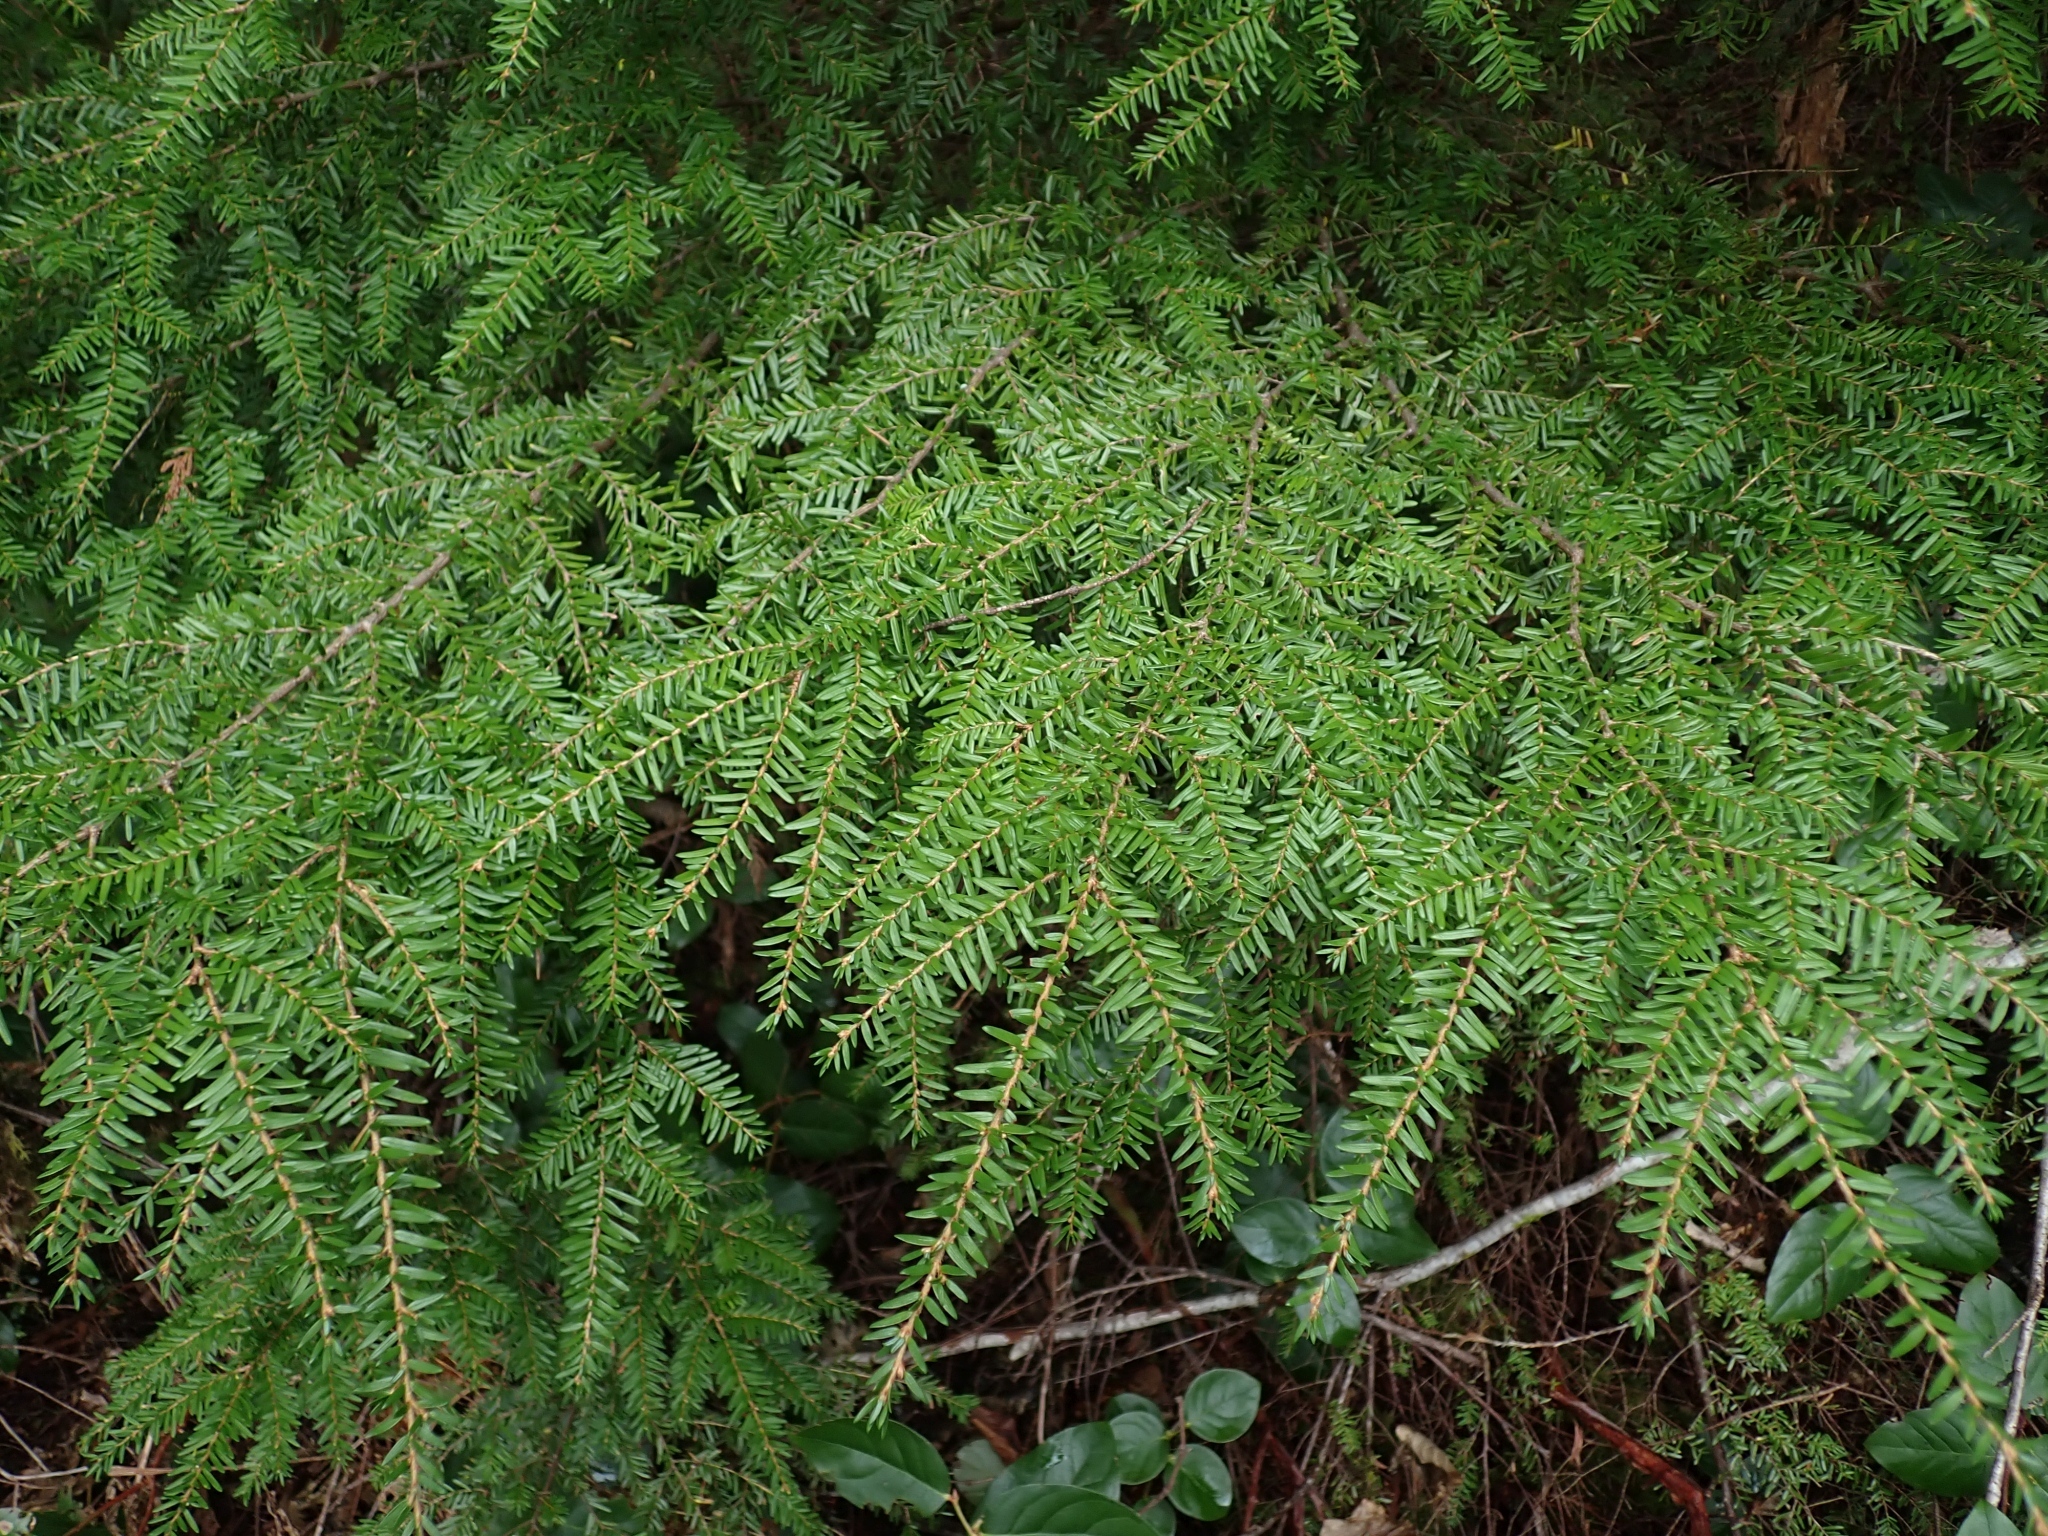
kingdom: Plantae
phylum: Tracheophyta
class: Pinopsida
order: Pinales
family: Pinaceae
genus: Tsuga
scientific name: Tsuga heterophylla
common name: Western hemlock
